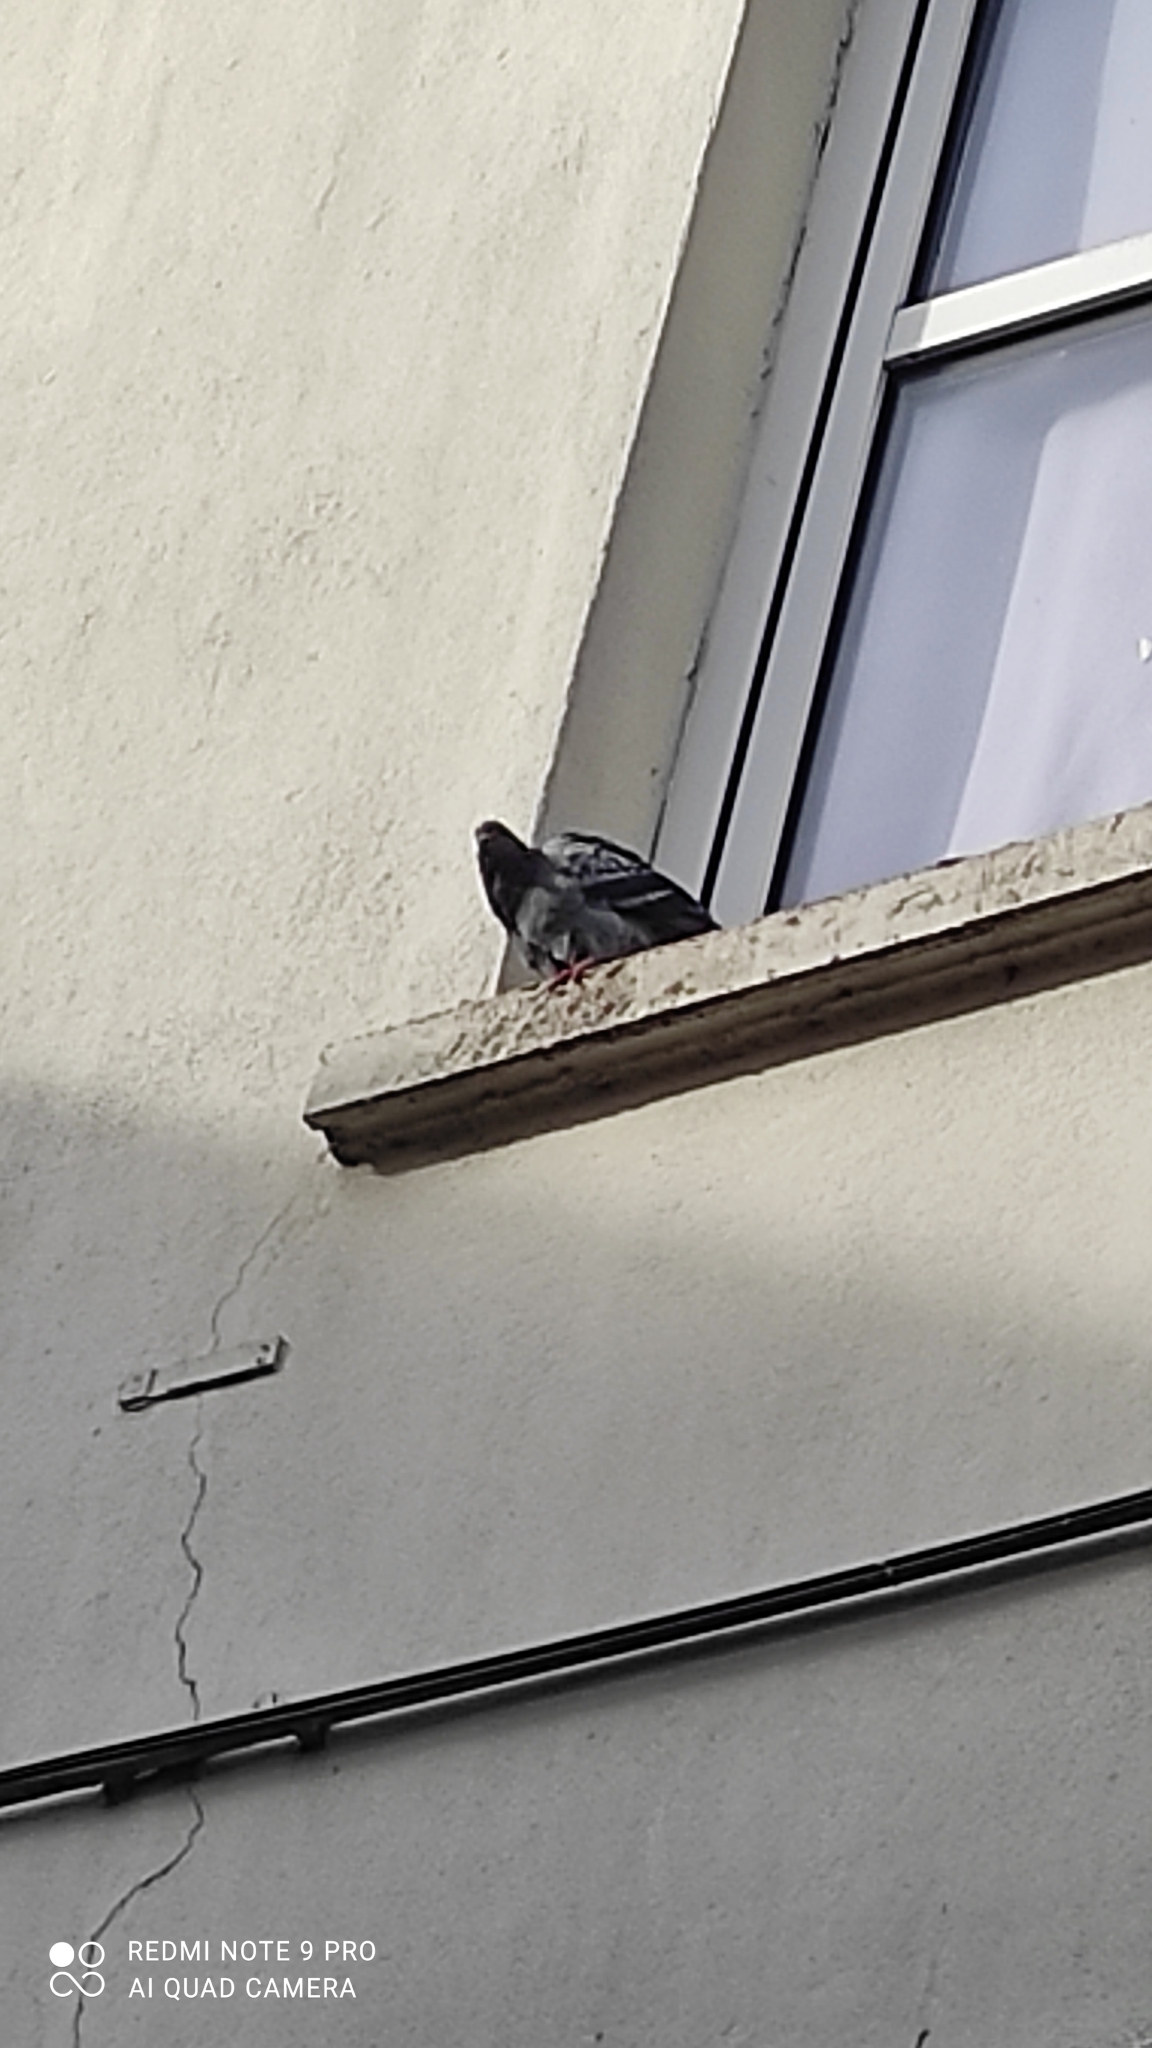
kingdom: Animalia
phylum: Chordata
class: Aves
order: Columbiformes
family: Columbidae
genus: Columba
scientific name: Columba livia
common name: Rock pigeon
